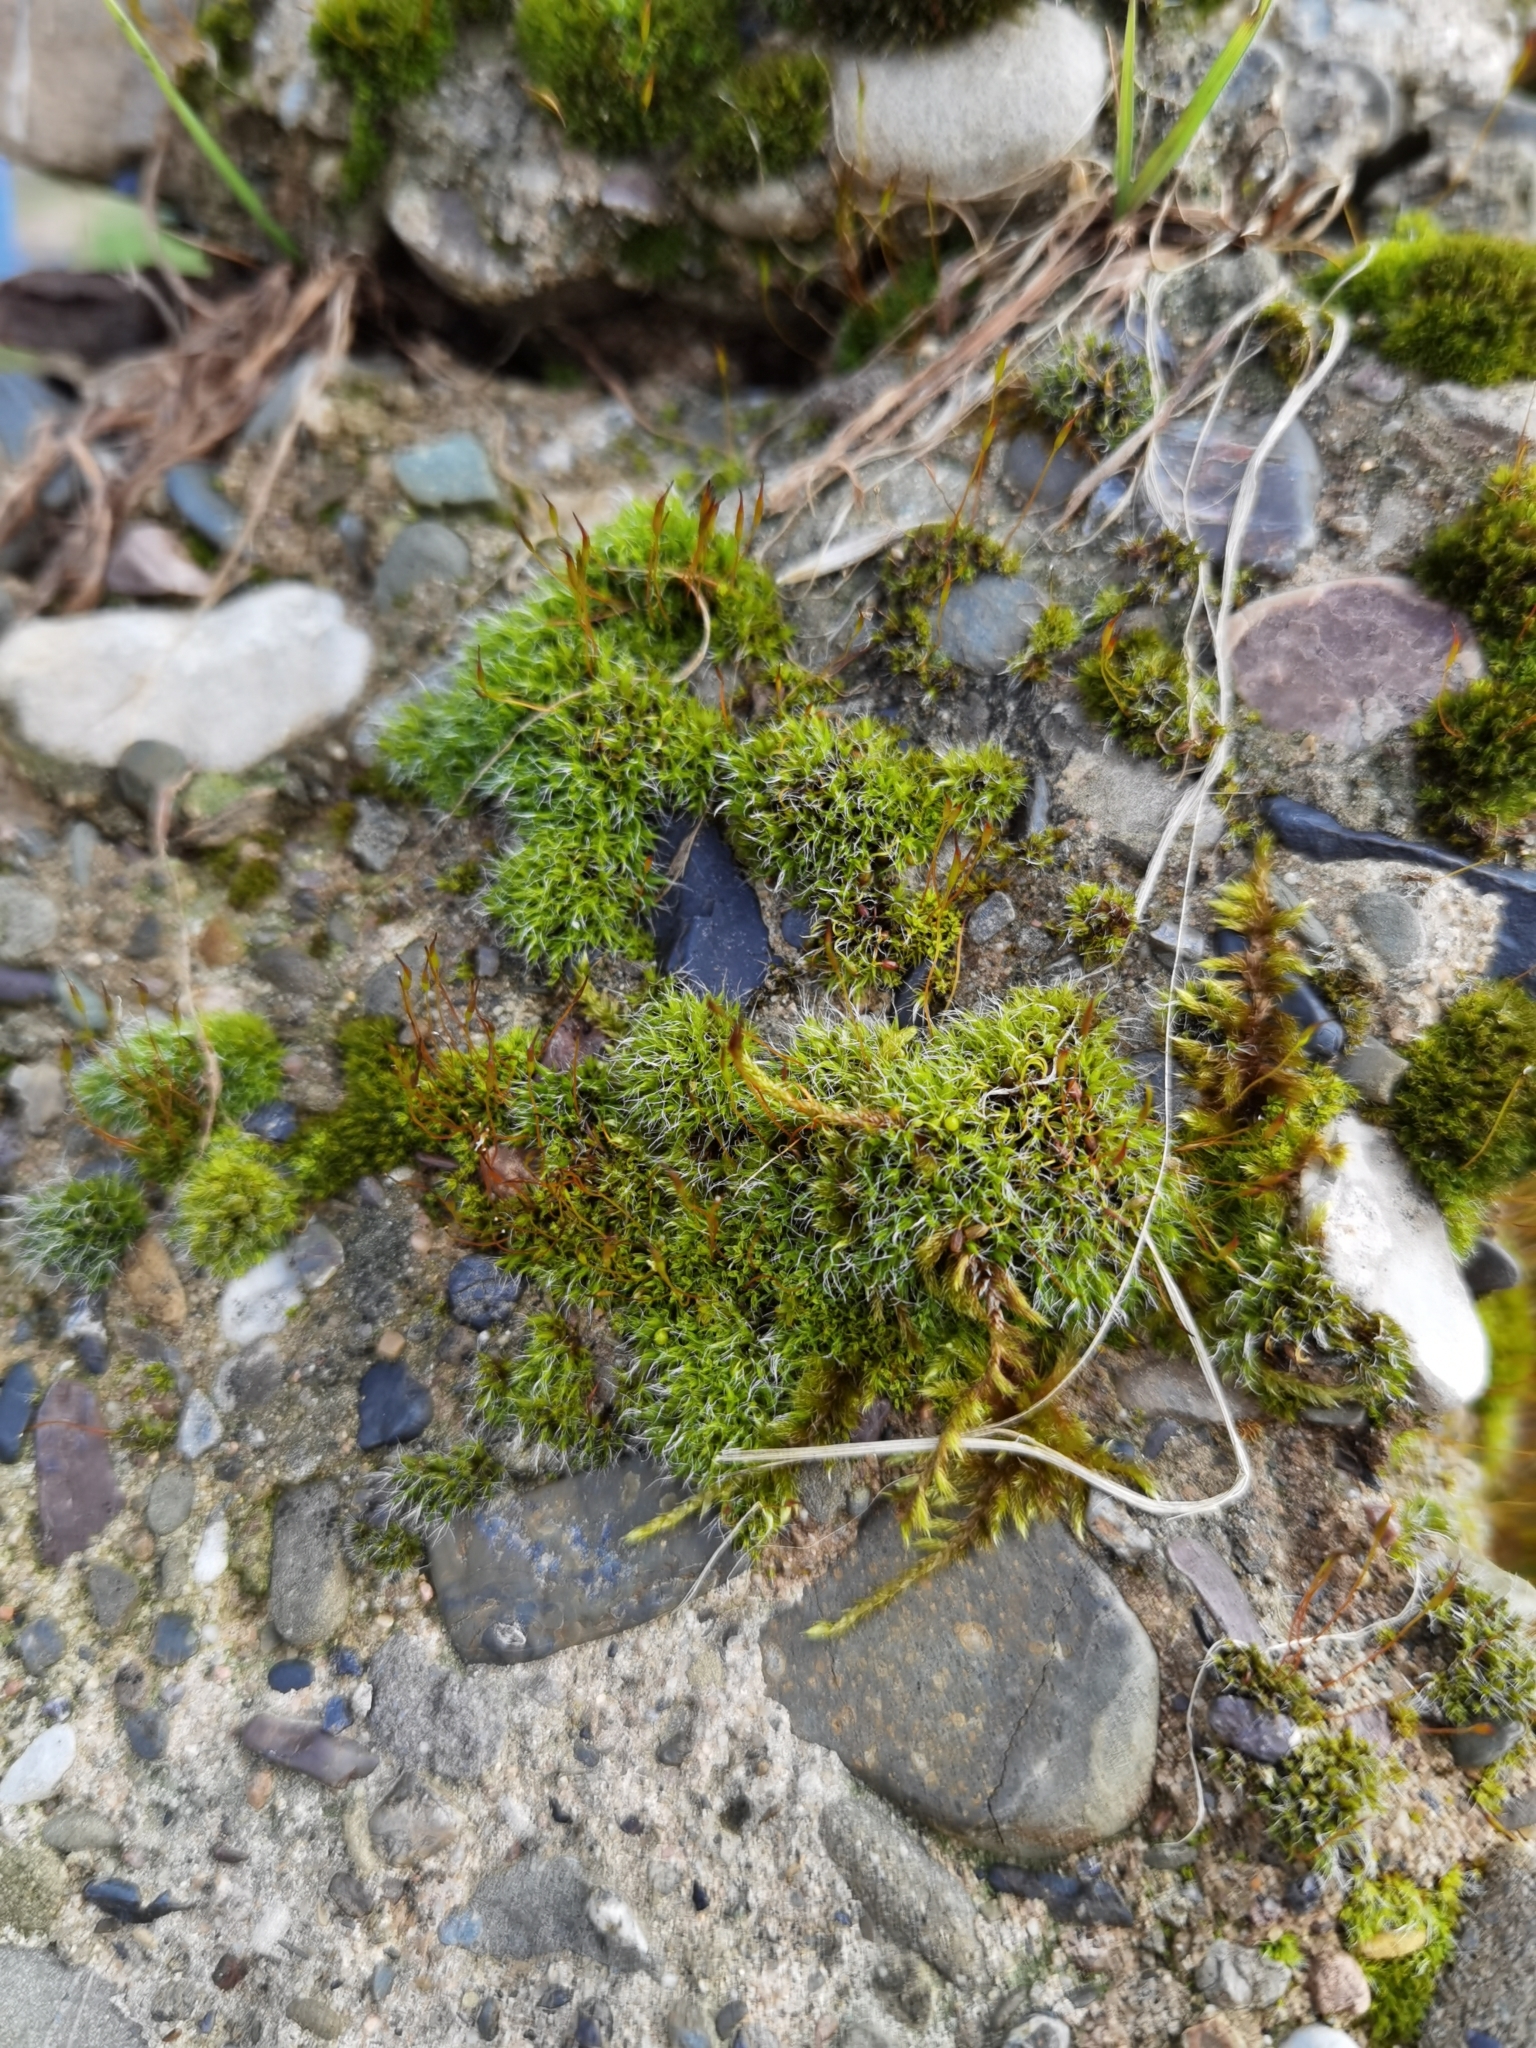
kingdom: Plantae
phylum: Bryophyta
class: Bryopsida
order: Pottiales
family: Pottiaceae
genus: Tortula
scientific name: Tortula muralis
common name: Wall screw-moss
